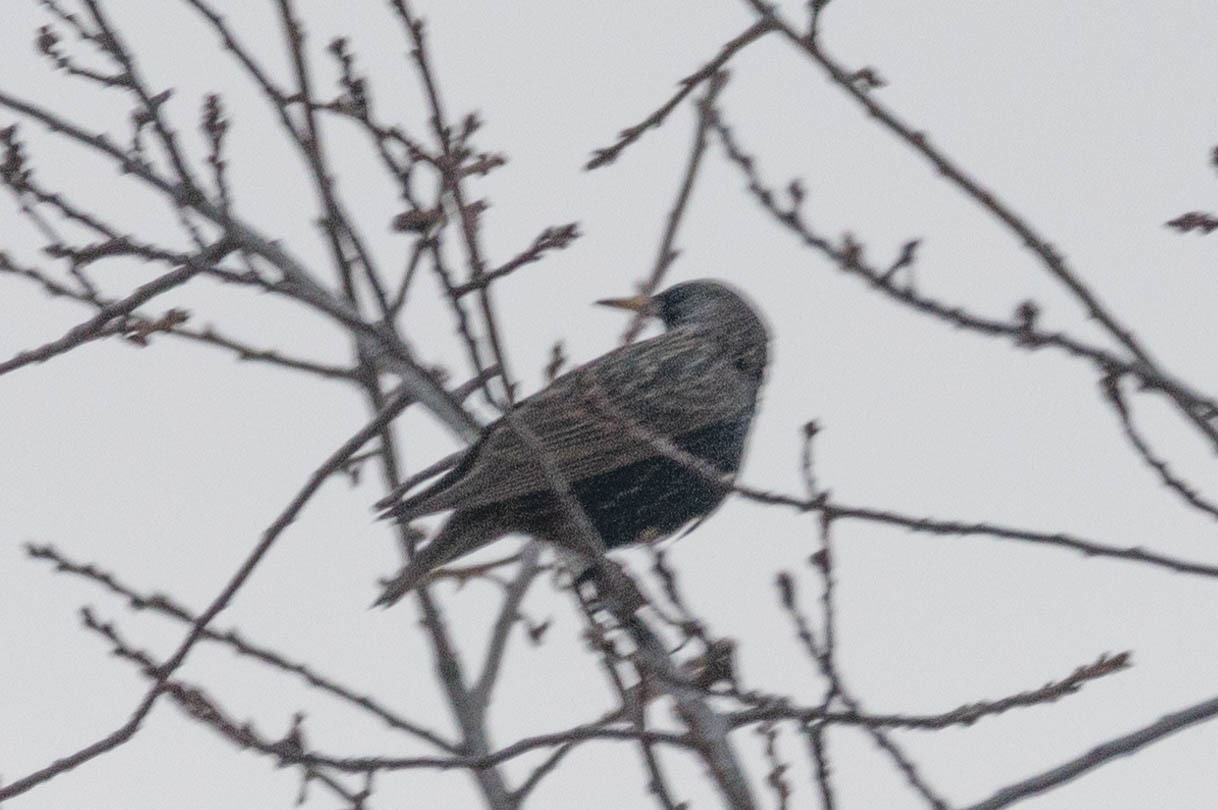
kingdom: Animalia
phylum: Chordata
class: Aves
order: Passeriformes
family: Sturnidae
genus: Sturnus
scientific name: Sturnus vulgaris
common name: Common starling
